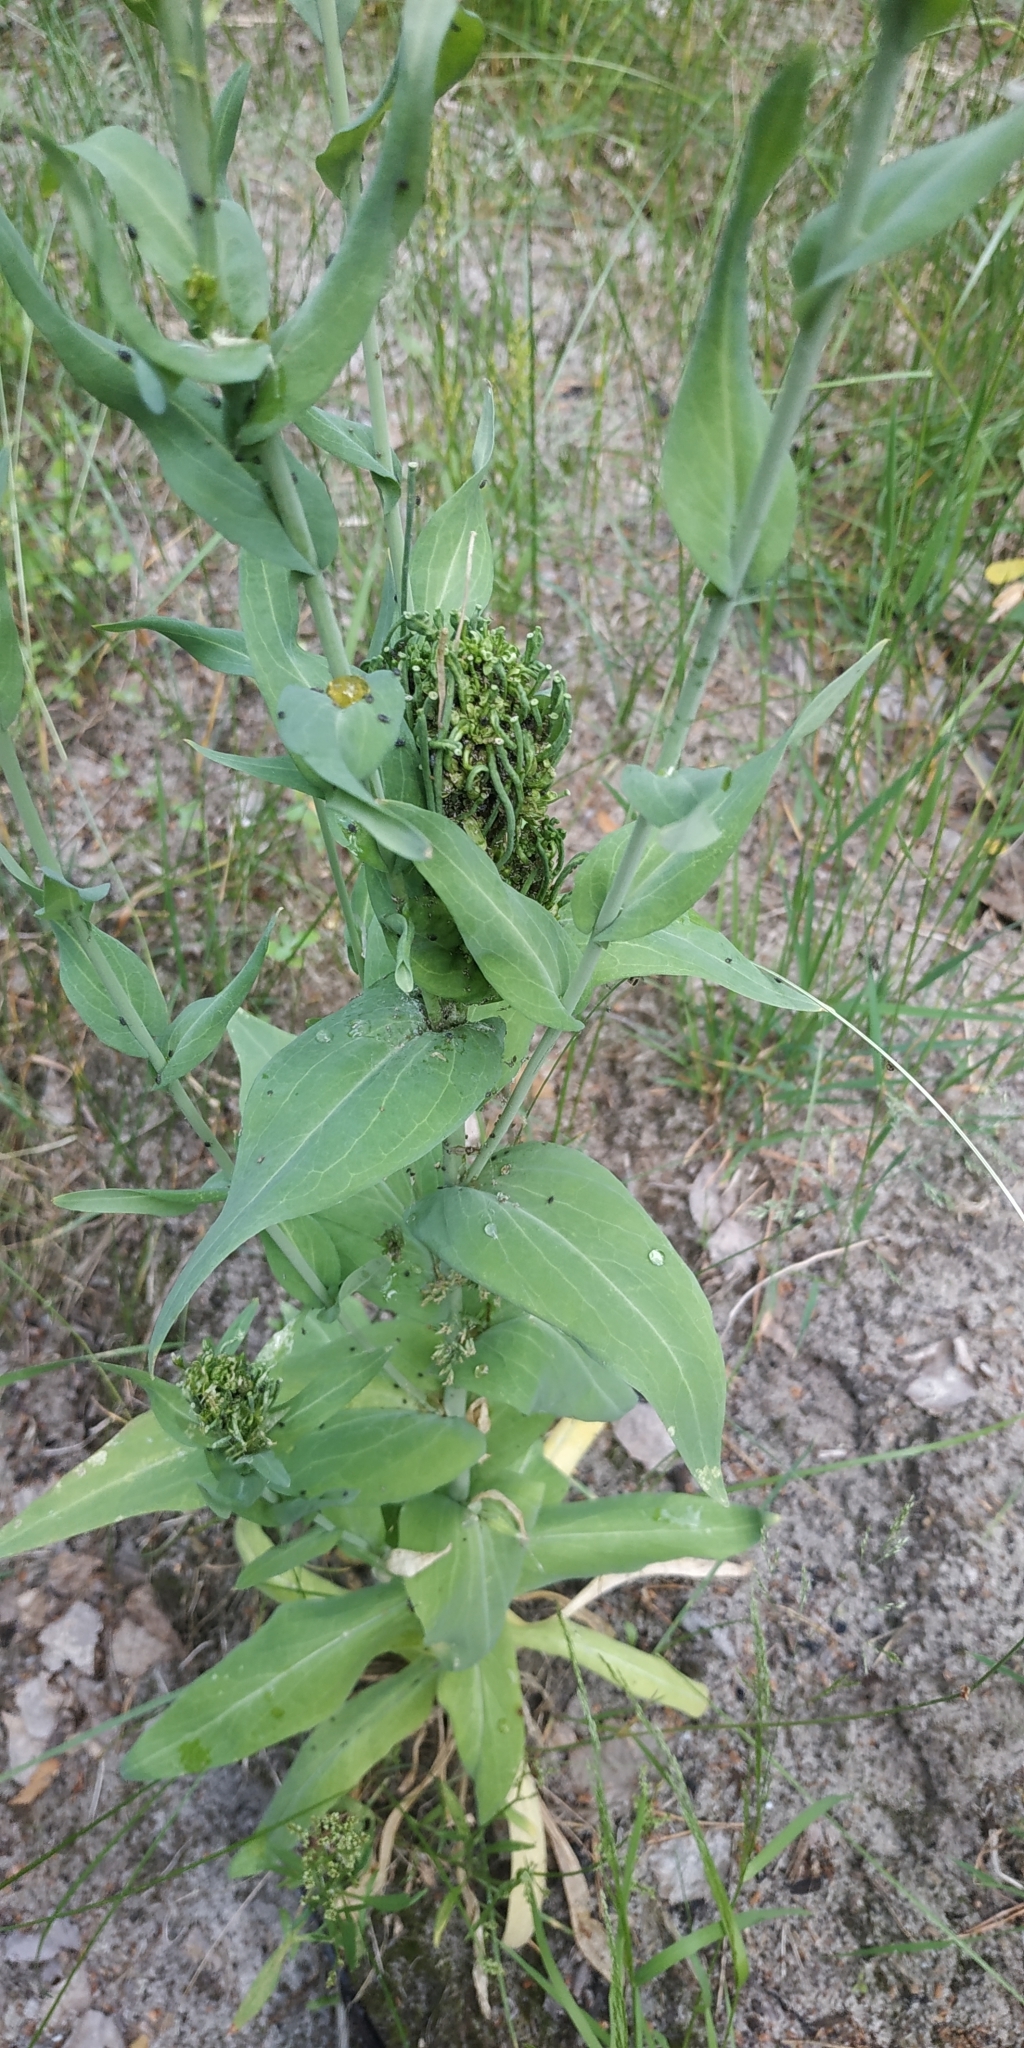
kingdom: Plantae
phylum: Tracheophyta
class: Magnoliopsida
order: Brassicales
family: Brassicaceae
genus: Turritis
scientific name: Turritis glabra
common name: Tower rockcress
